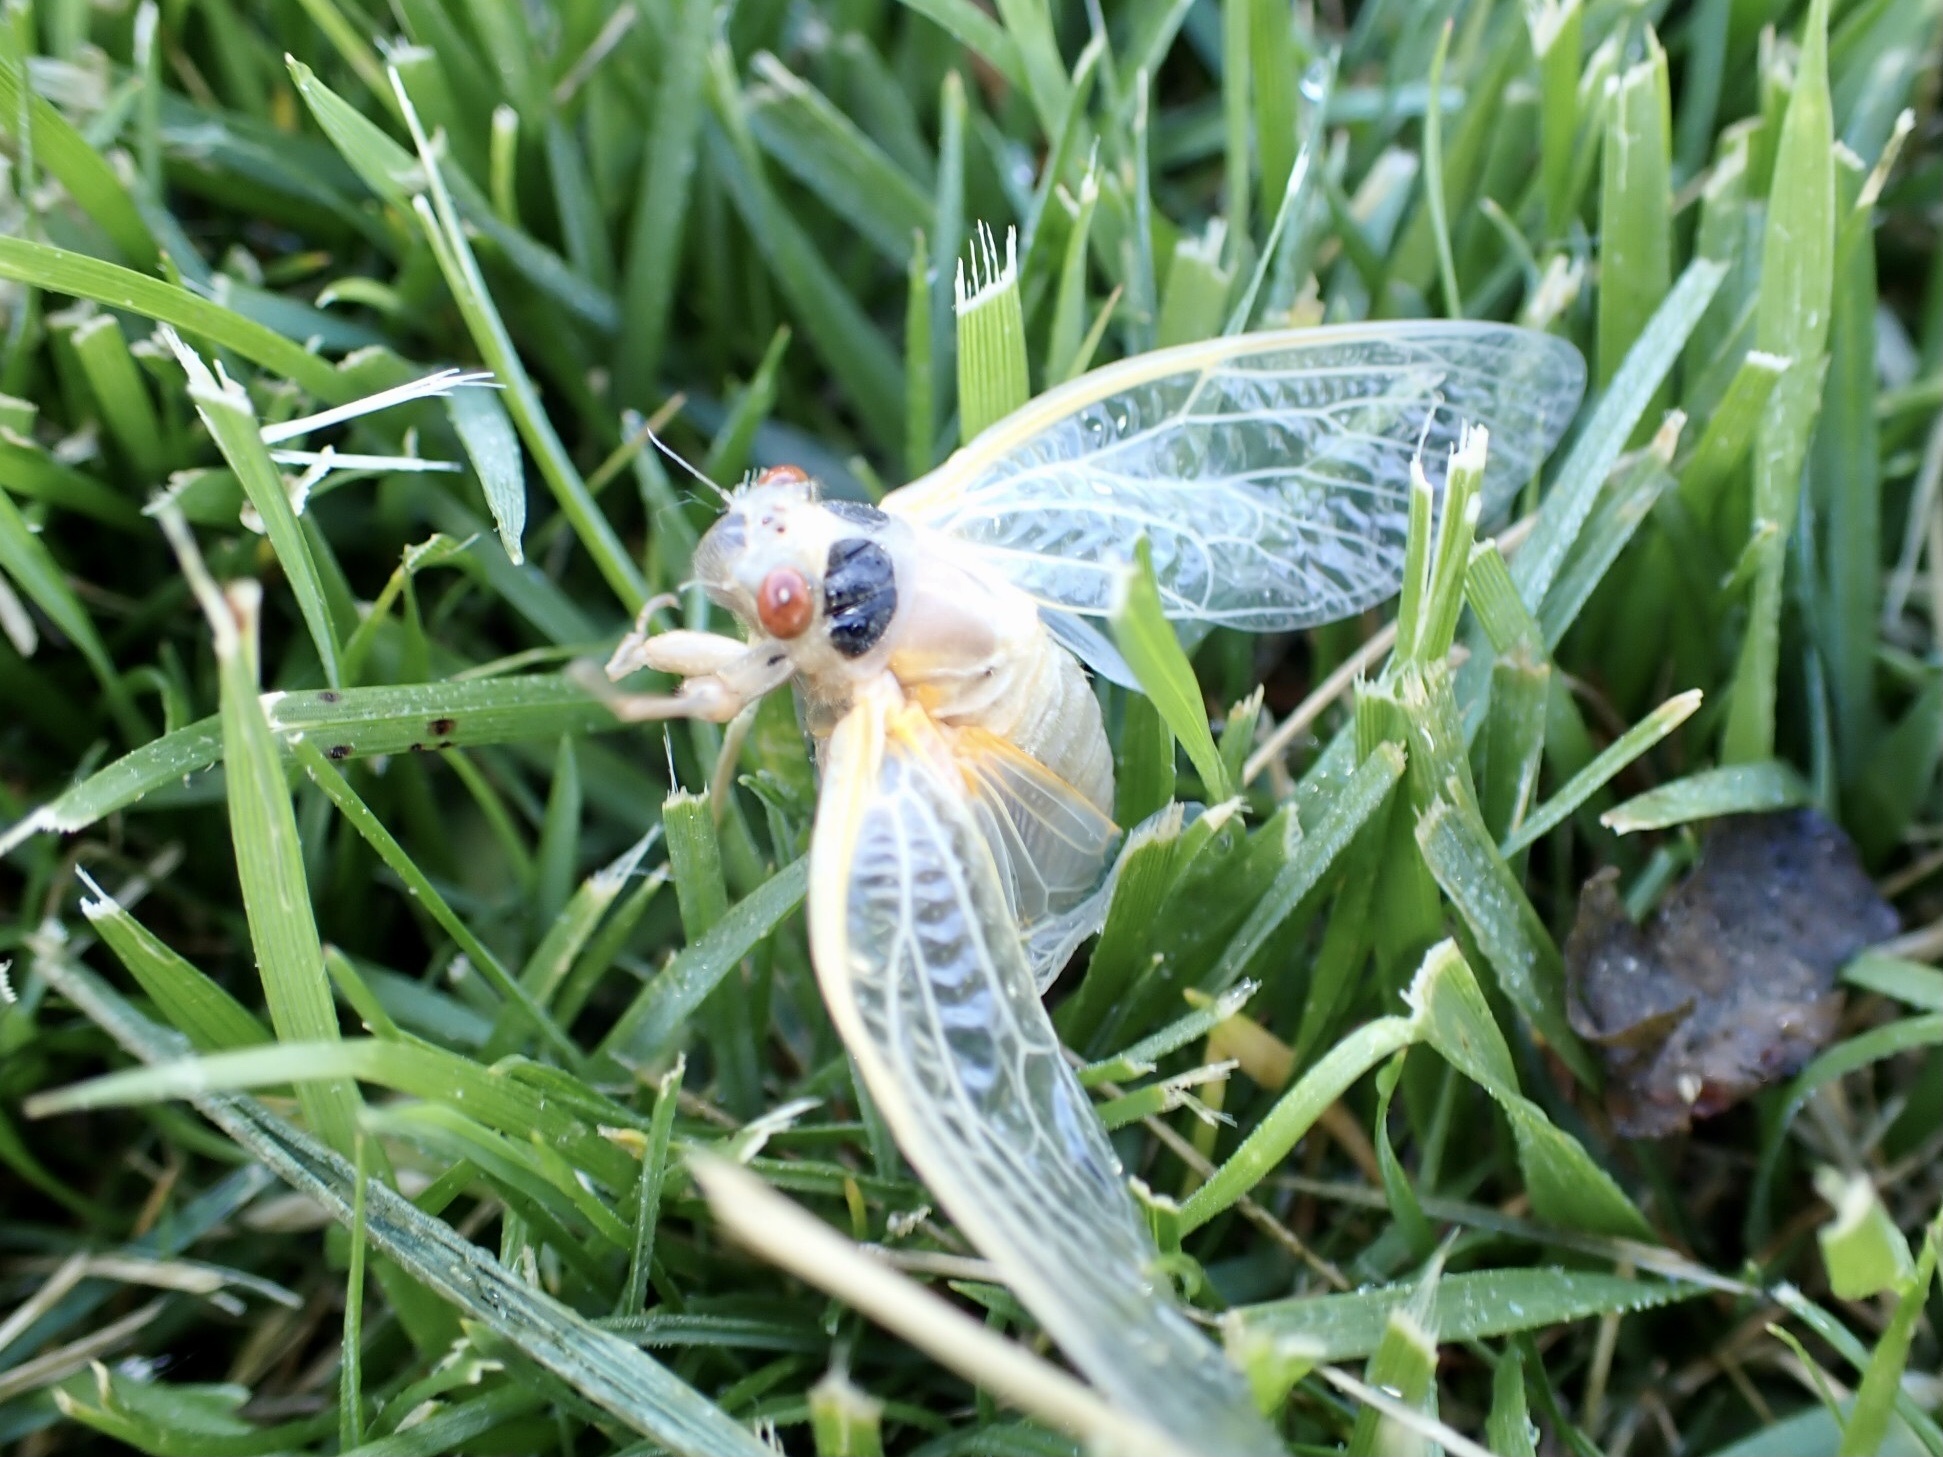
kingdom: Animalia
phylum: Arthropoda
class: Insecta
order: Hemiptera
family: Cicadidae
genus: Magicicada
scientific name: Magicicada
